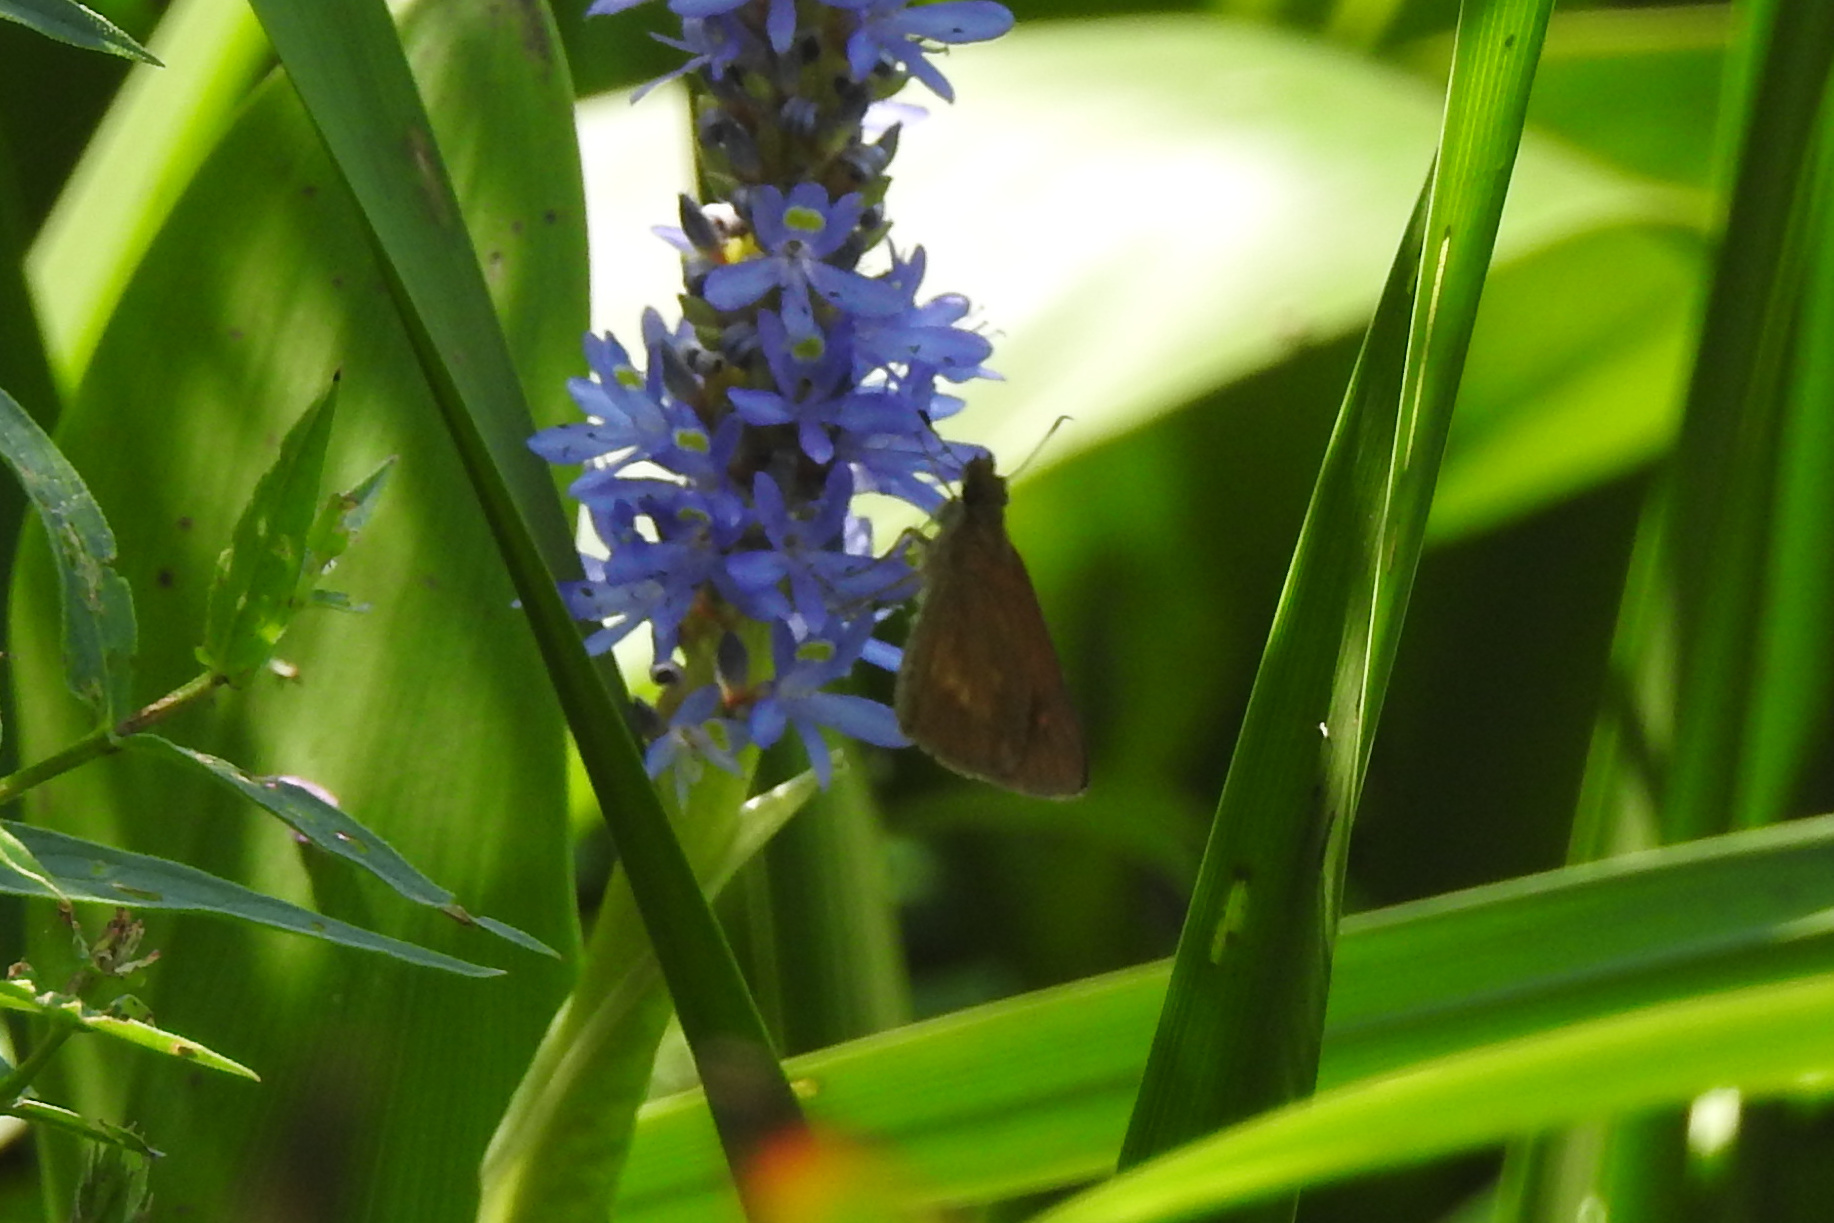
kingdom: Animalia
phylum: Arthropoda
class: Insecta
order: Lepidoptera
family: Hesperiidae
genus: Poanes
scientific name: Poanes viator
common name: Broad-winged skipper
